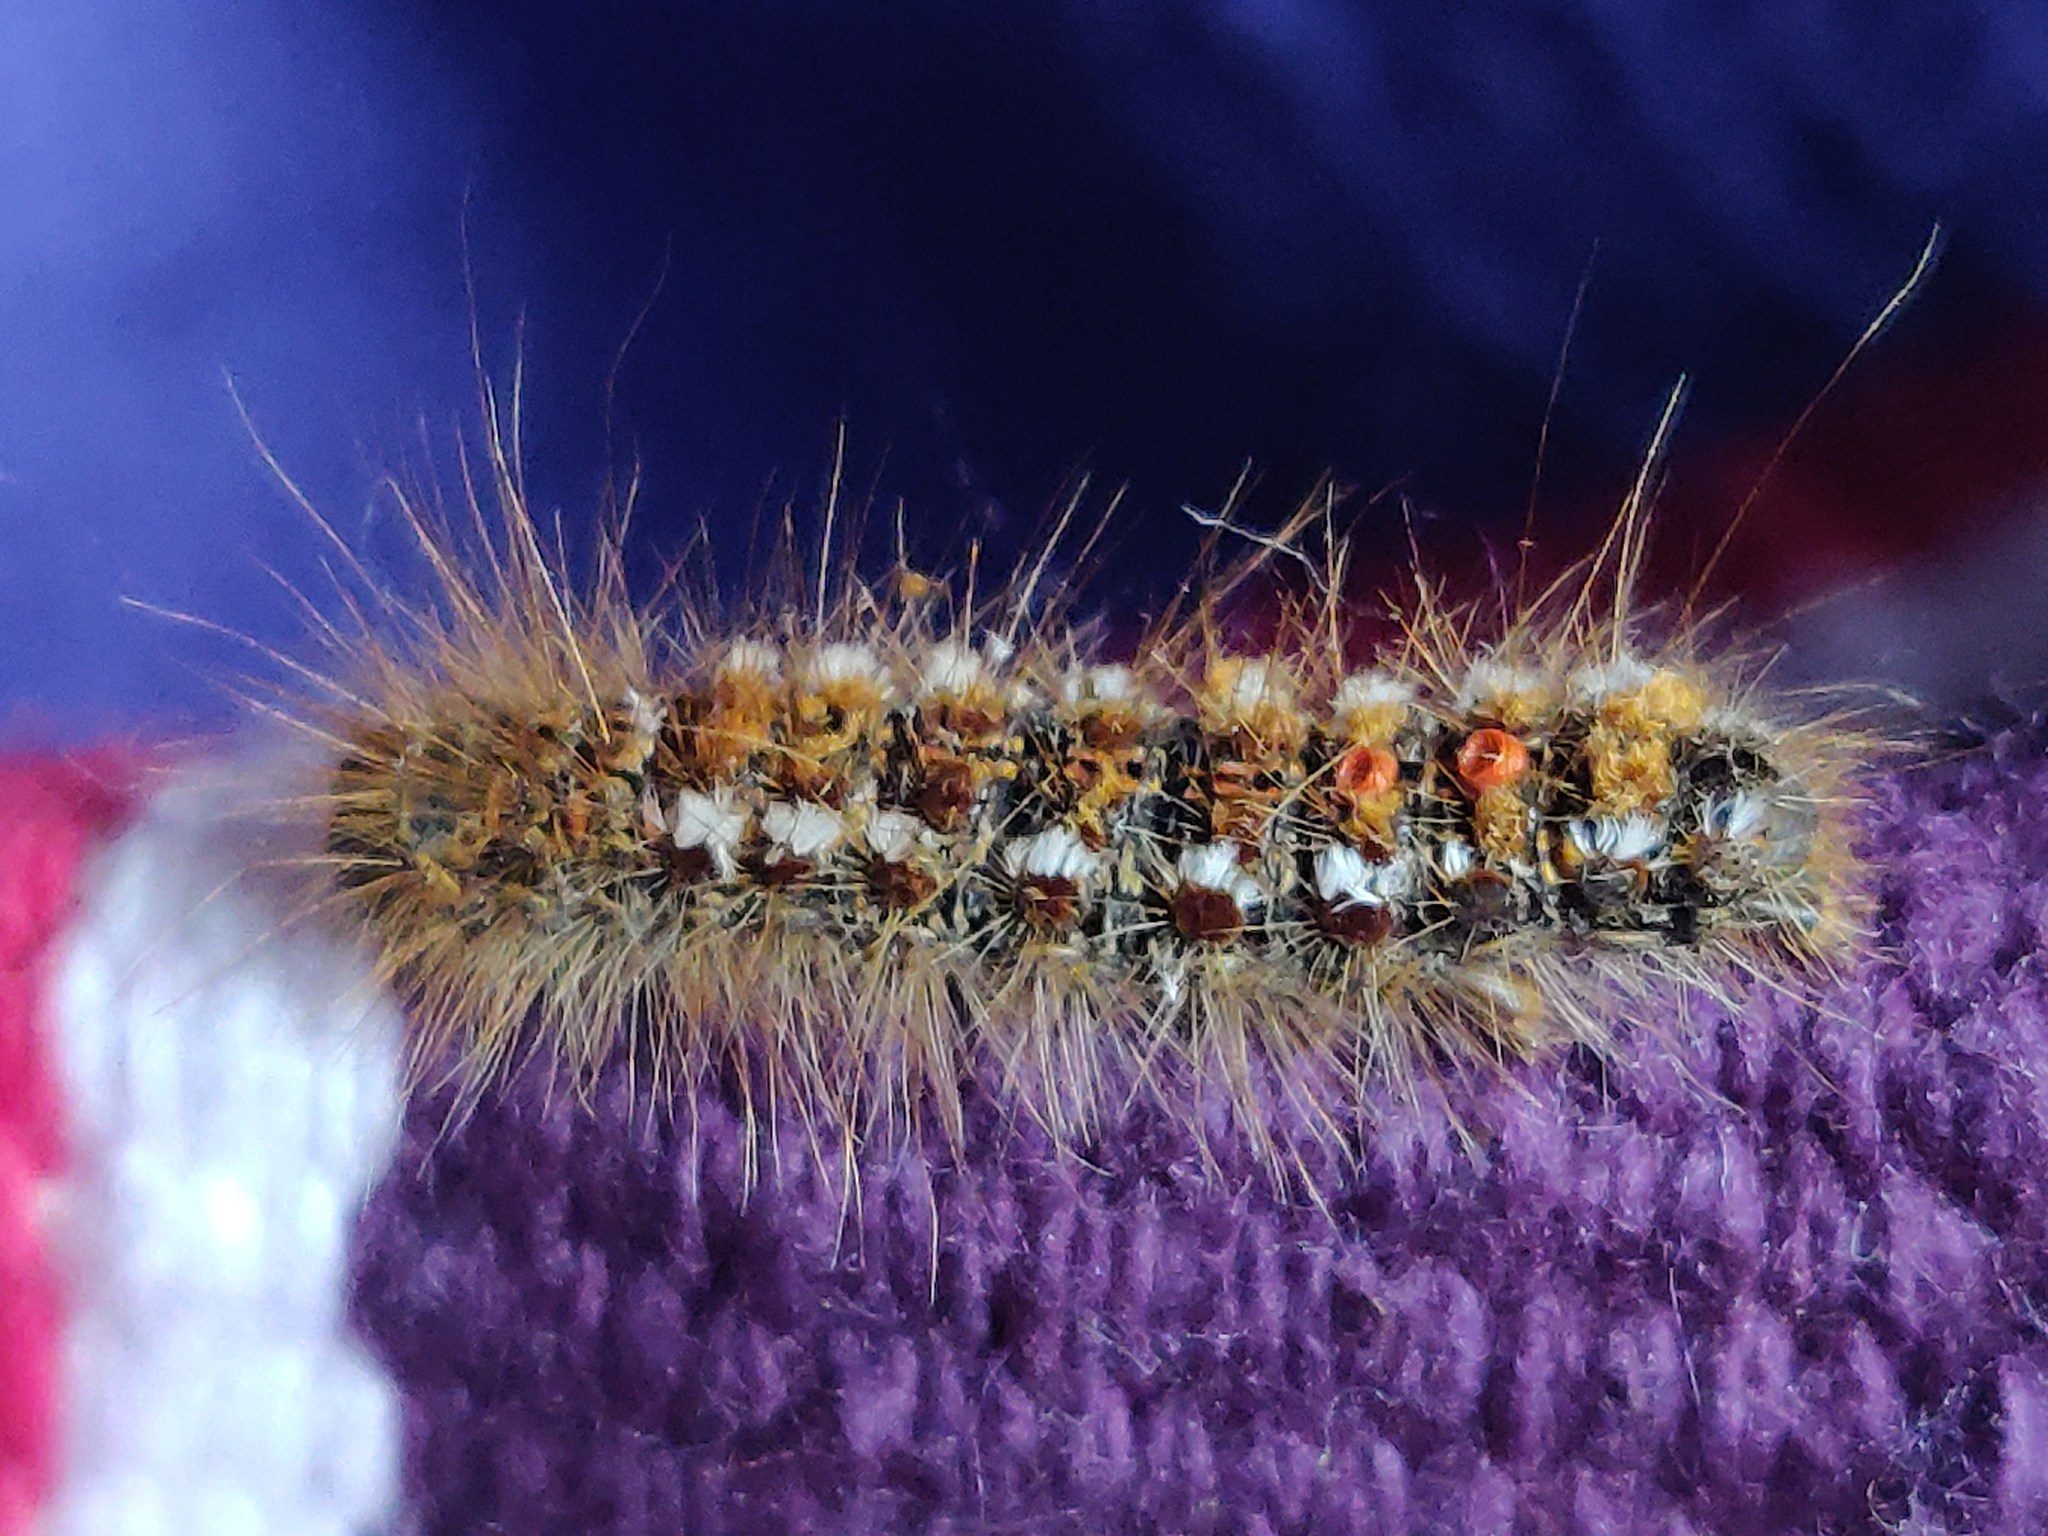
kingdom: Animalia
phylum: Arthropoda
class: Insecta
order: Lepidoptera
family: Erebidae
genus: Euproctis
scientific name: Euproctis chrysorrhoea
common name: Brown-tail
